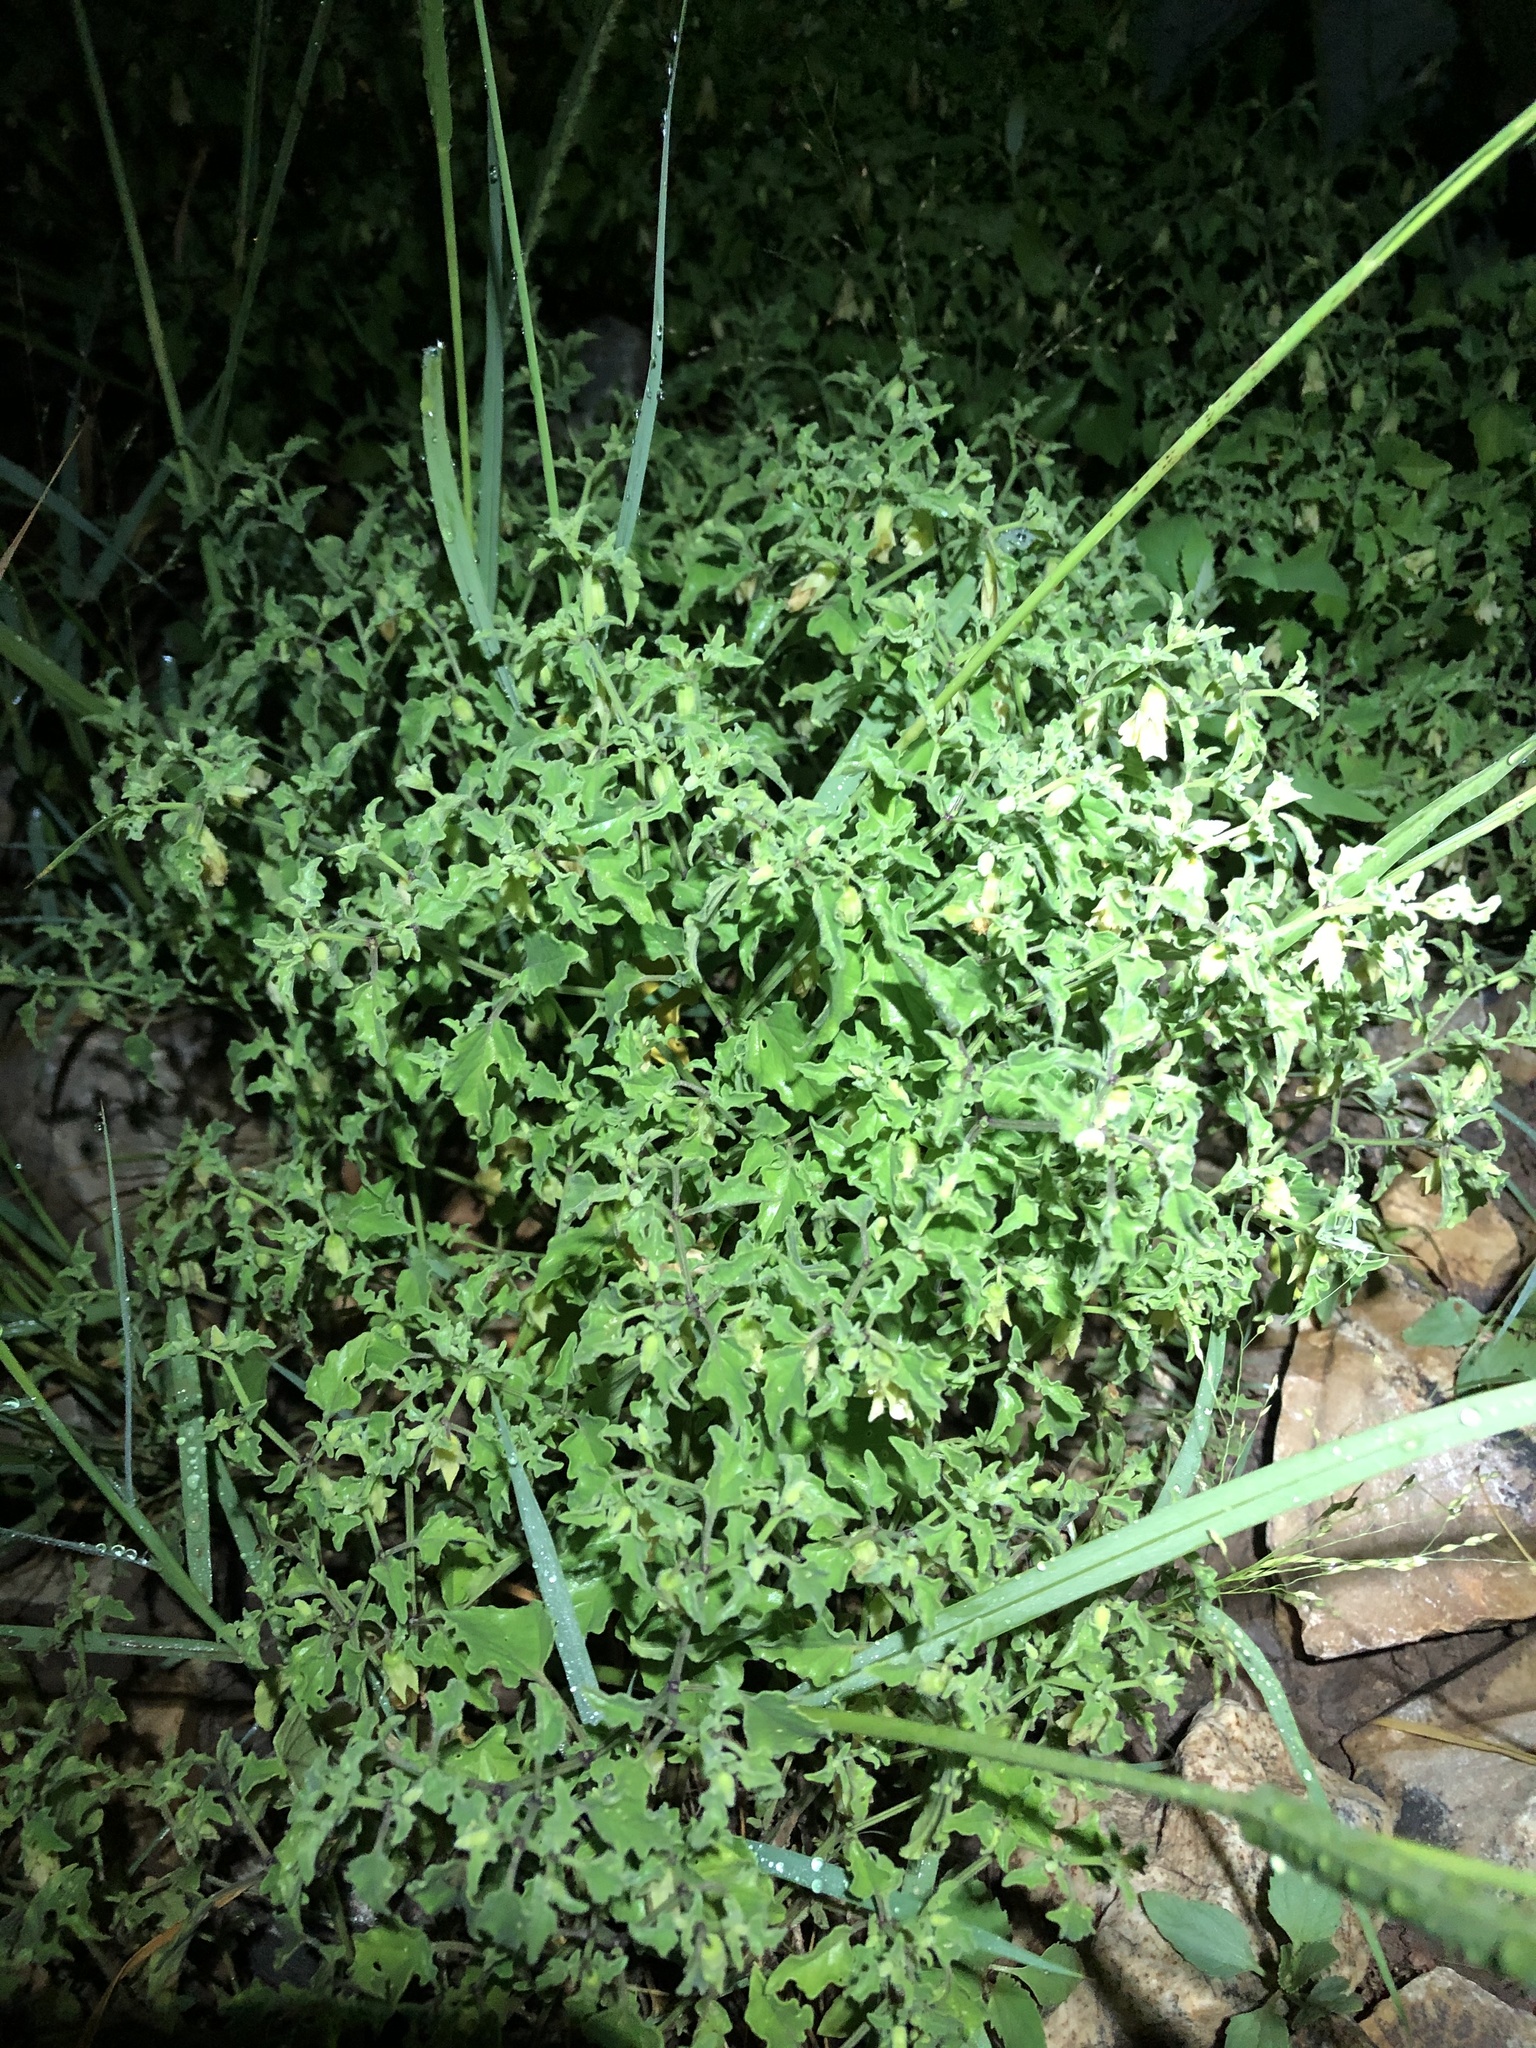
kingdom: Plantae
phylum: Tracheophyta
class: Magnoliopsida
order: Solanales
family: Solanaceae
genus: Physalis
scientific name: Physalis hederifolia
